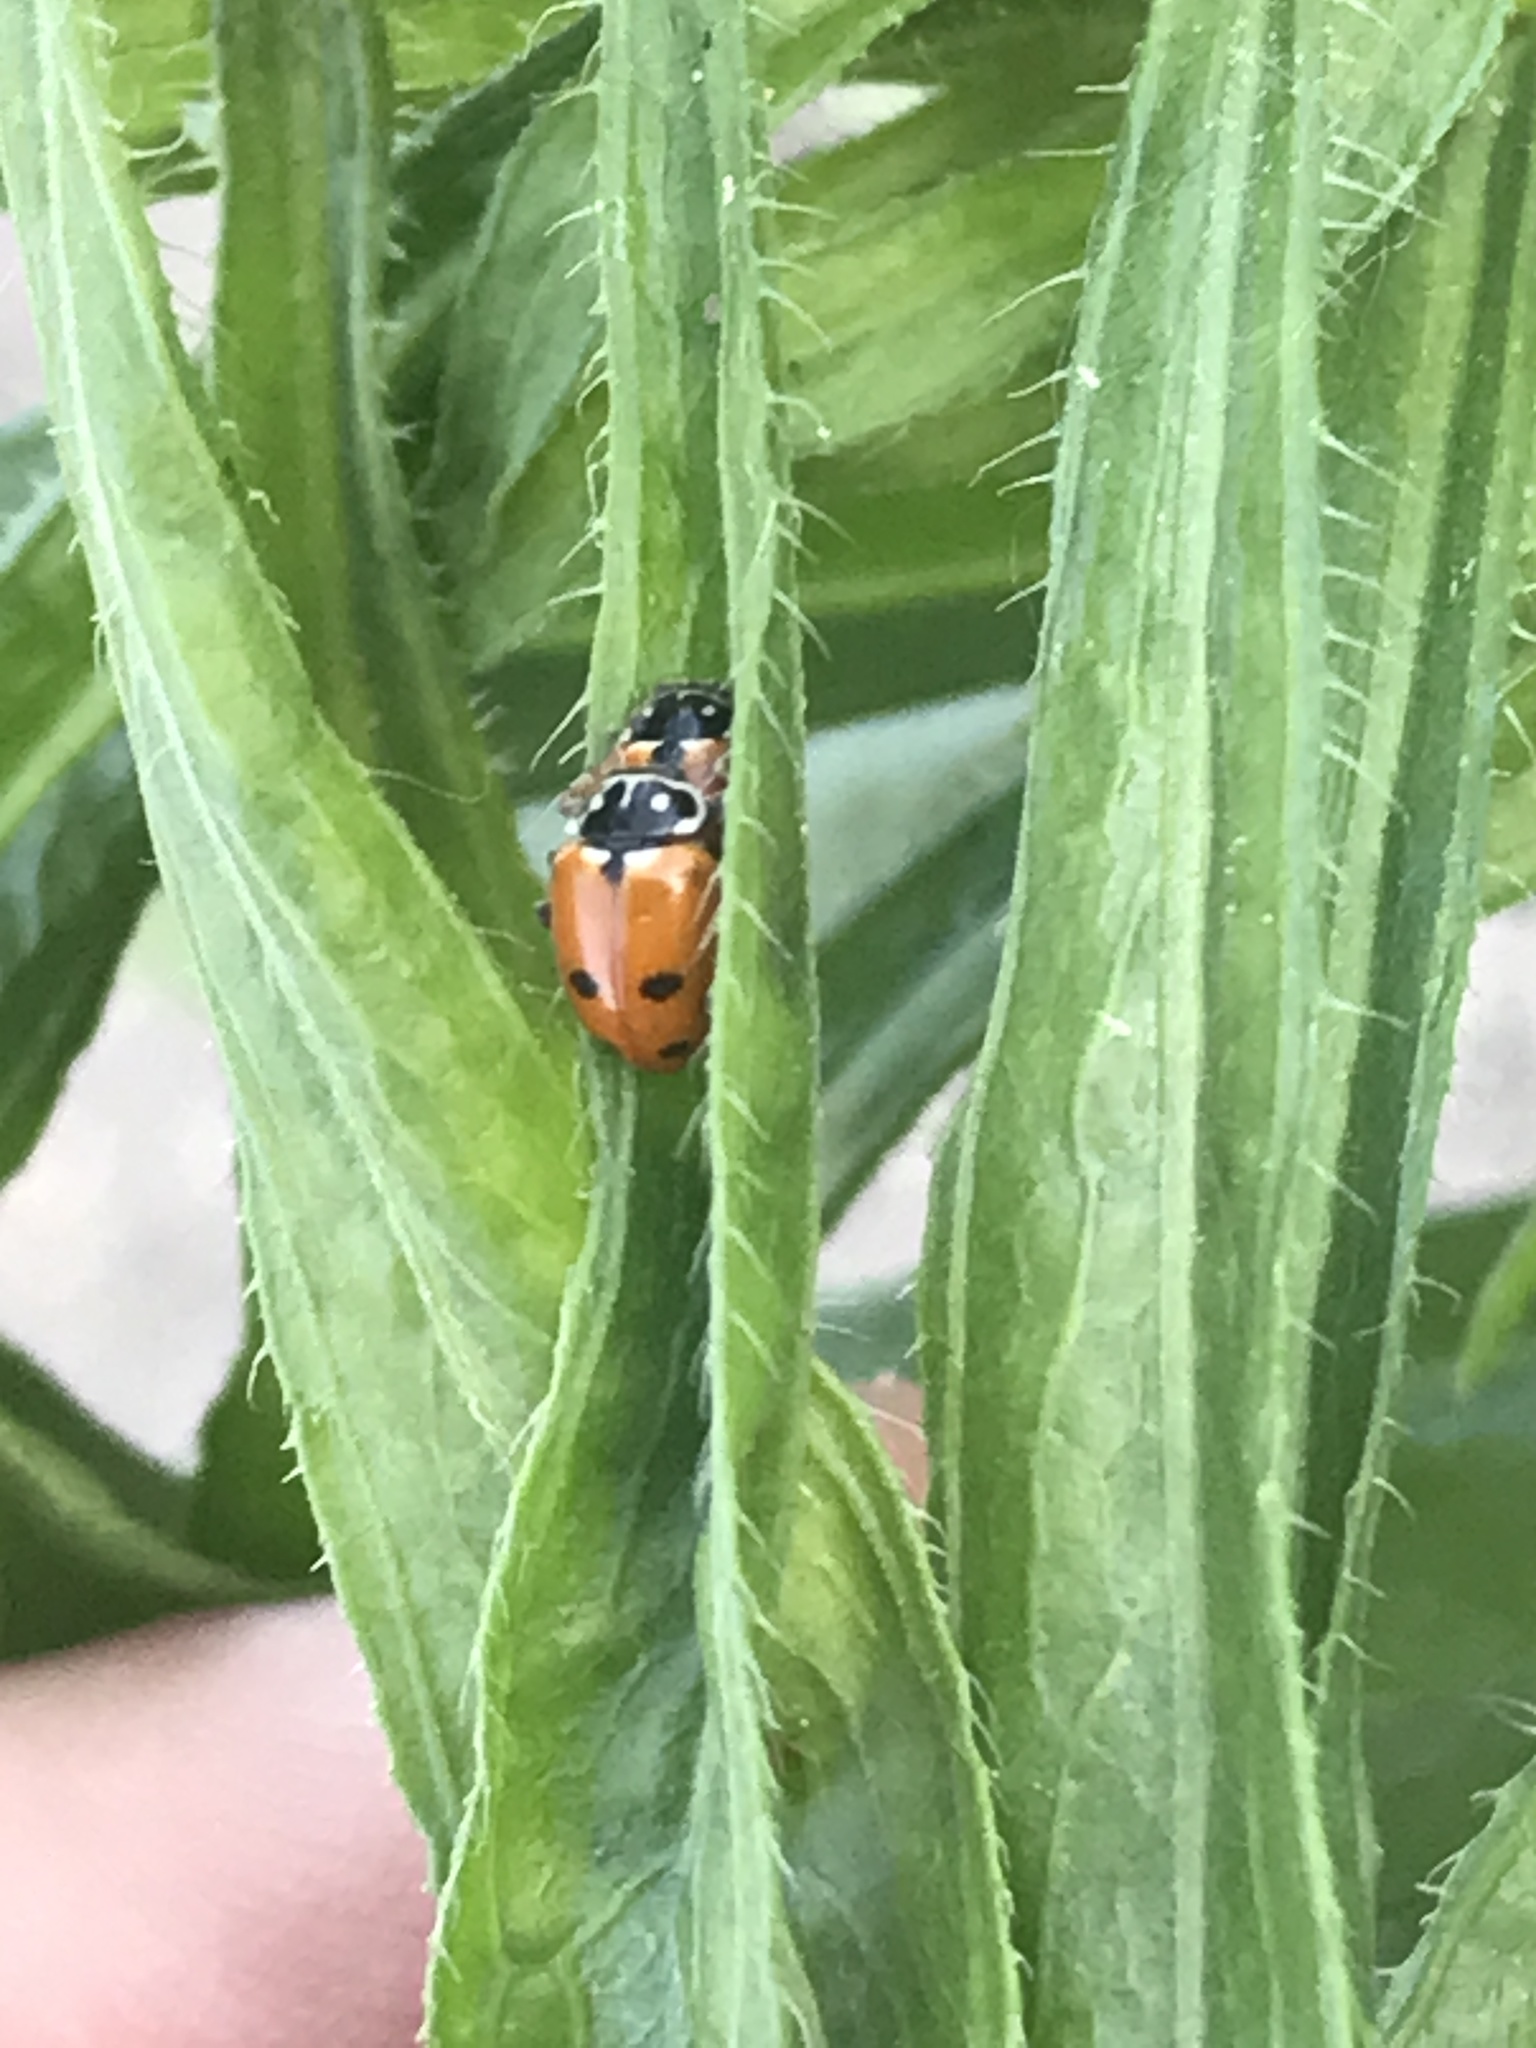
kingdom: Animalia
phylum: Arthropoda
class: Insecta
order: Coleoptera
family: Coccinellidae
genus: Hippodamia
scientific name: Hippodamia variegata
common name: Ladybird beetle
